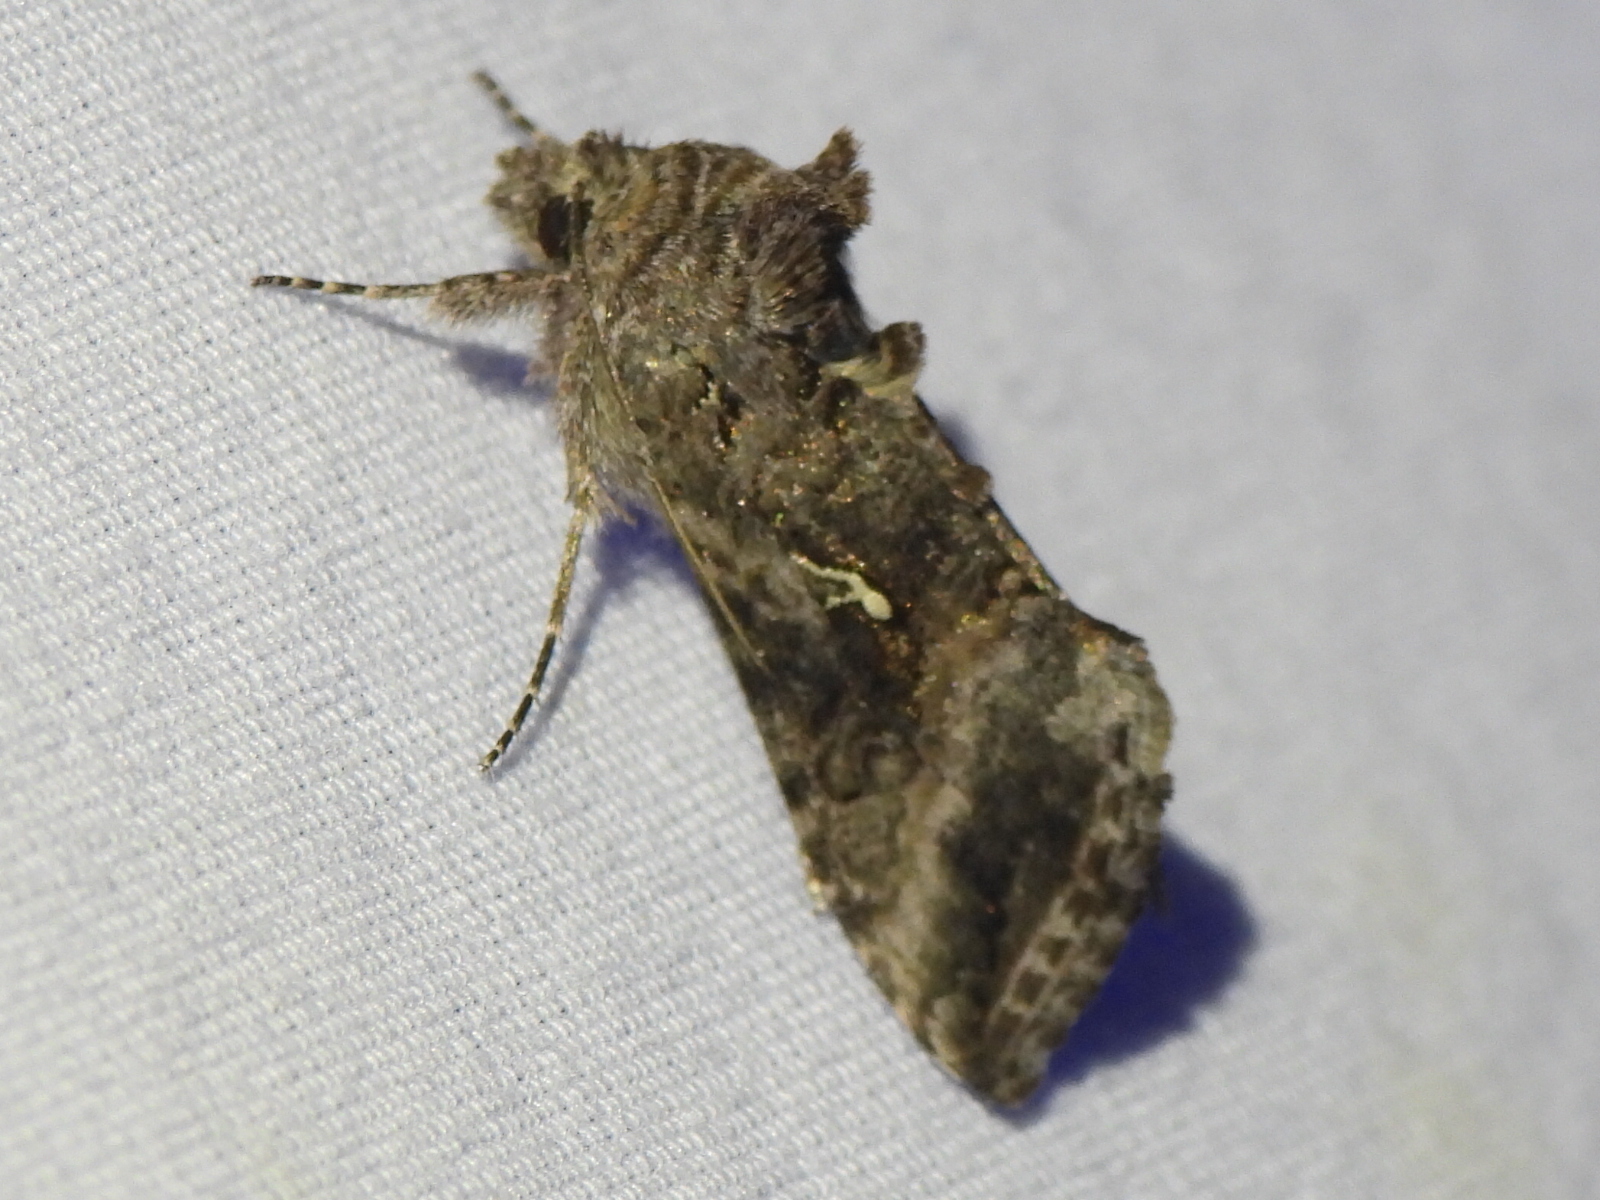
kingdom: Animalia
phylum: Arthropoda
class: Insecta
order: Lepidoptera
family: Noctuidae
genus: Rachiplusia
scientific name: Rachiplusia ou
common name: Gray looper moth
